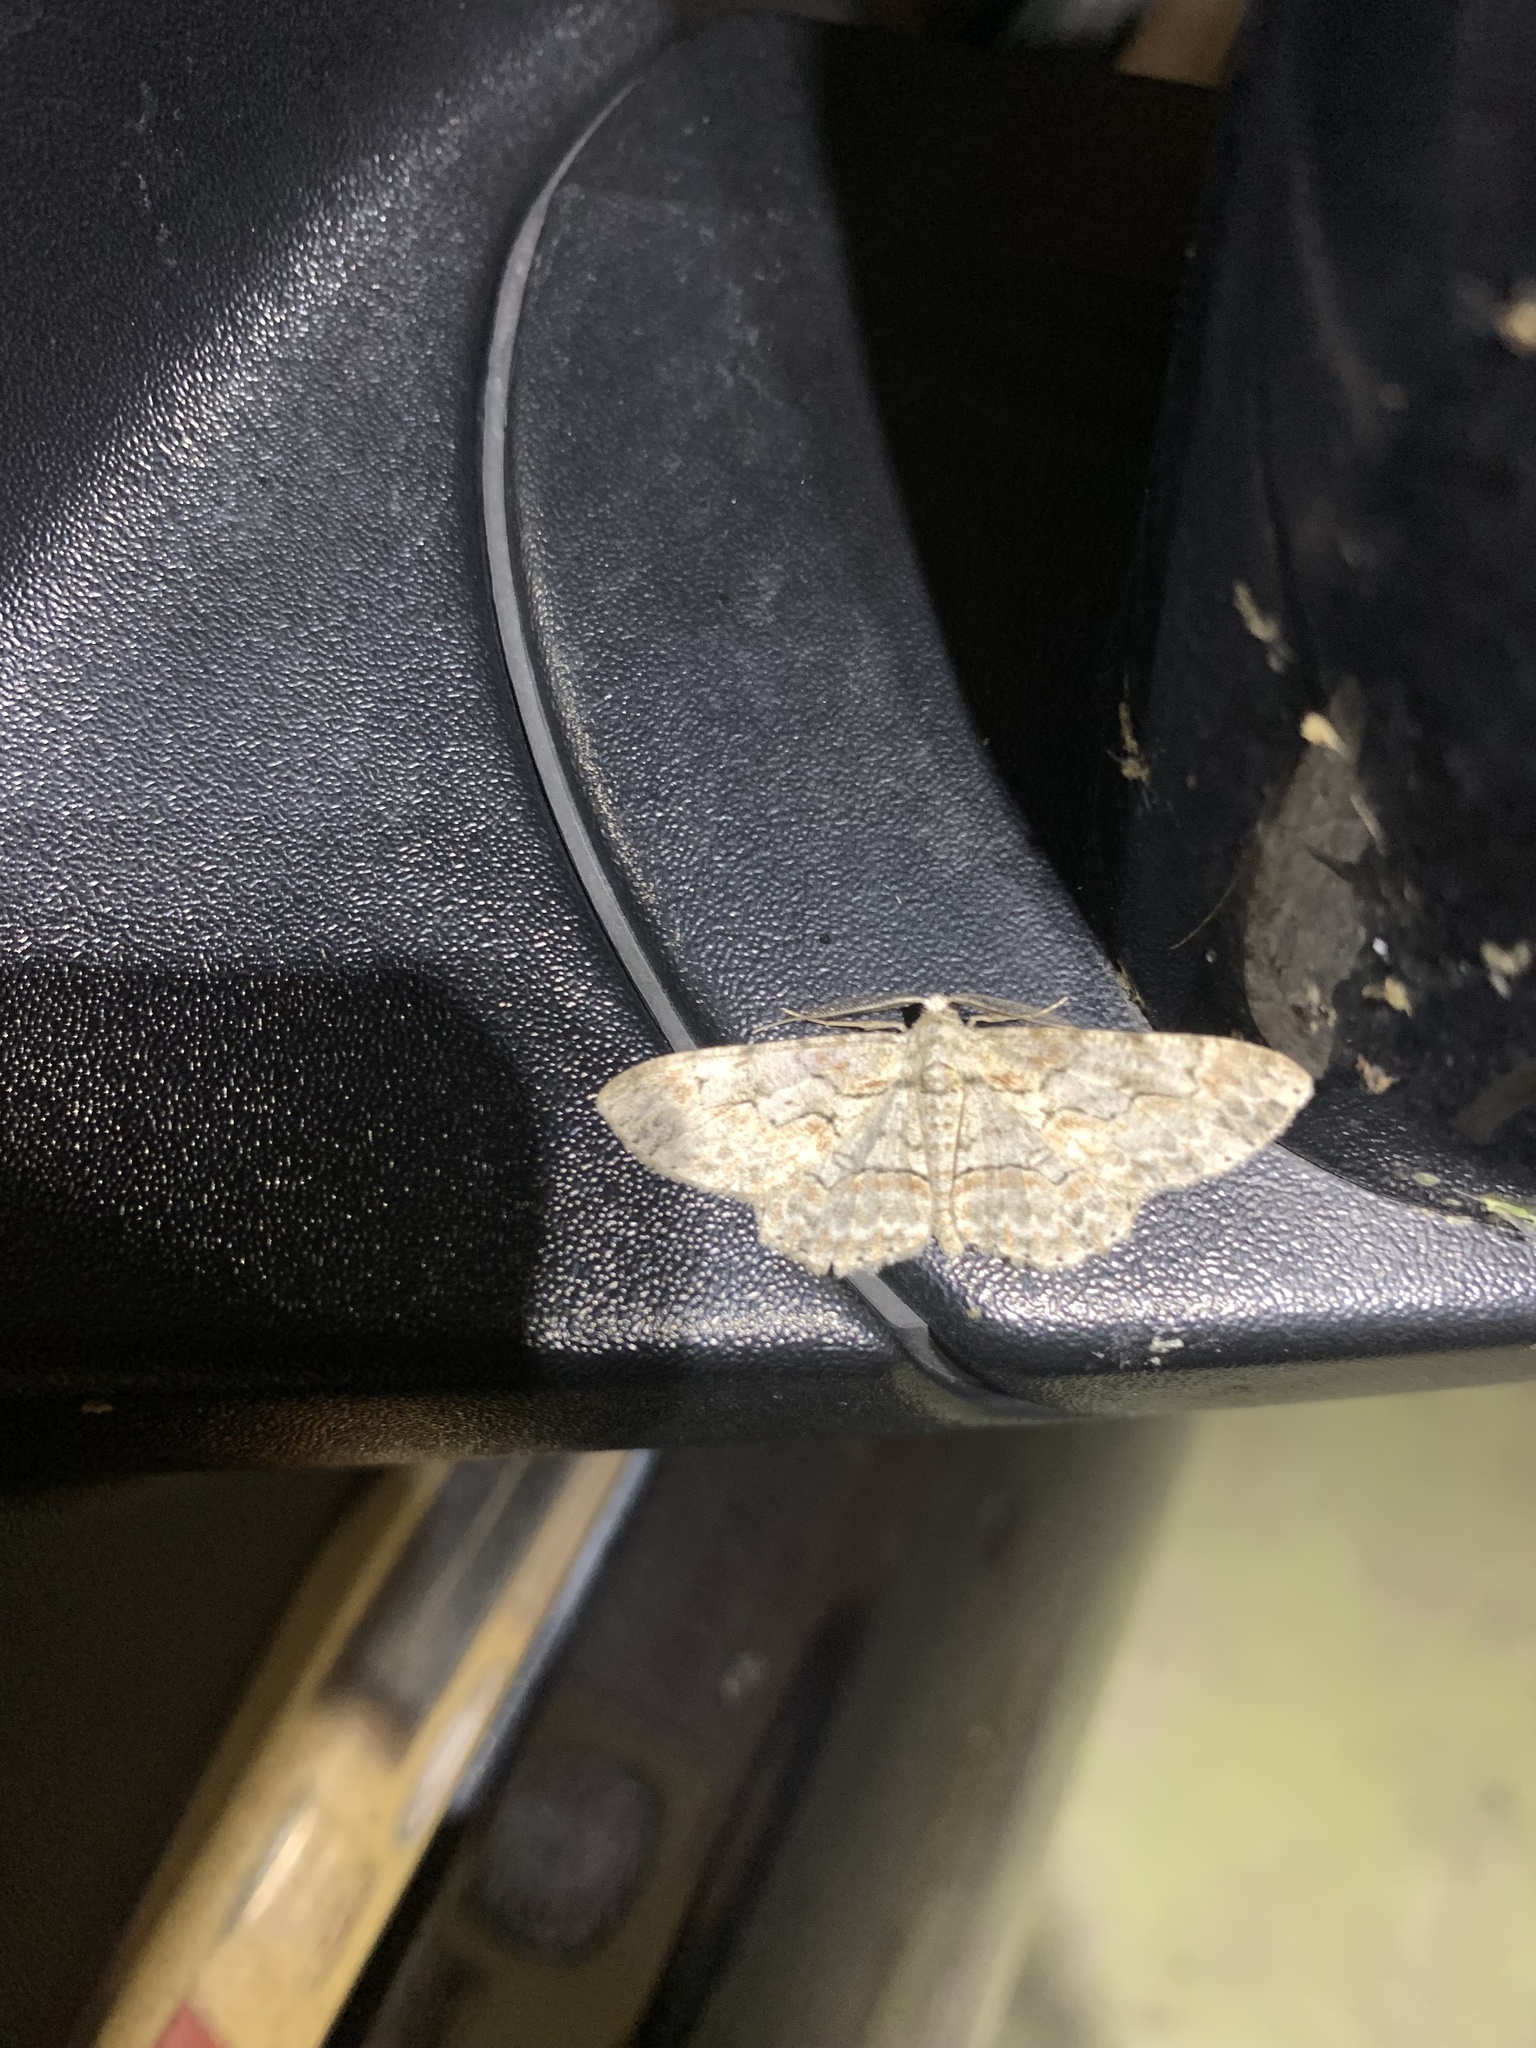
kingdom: Animalia
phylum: Arthropoda
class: Insecta
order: Lepidoptera
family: Geometridae
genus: Iridopsis
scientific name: Iridopsis defectaria
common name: Brown-shaded gray
